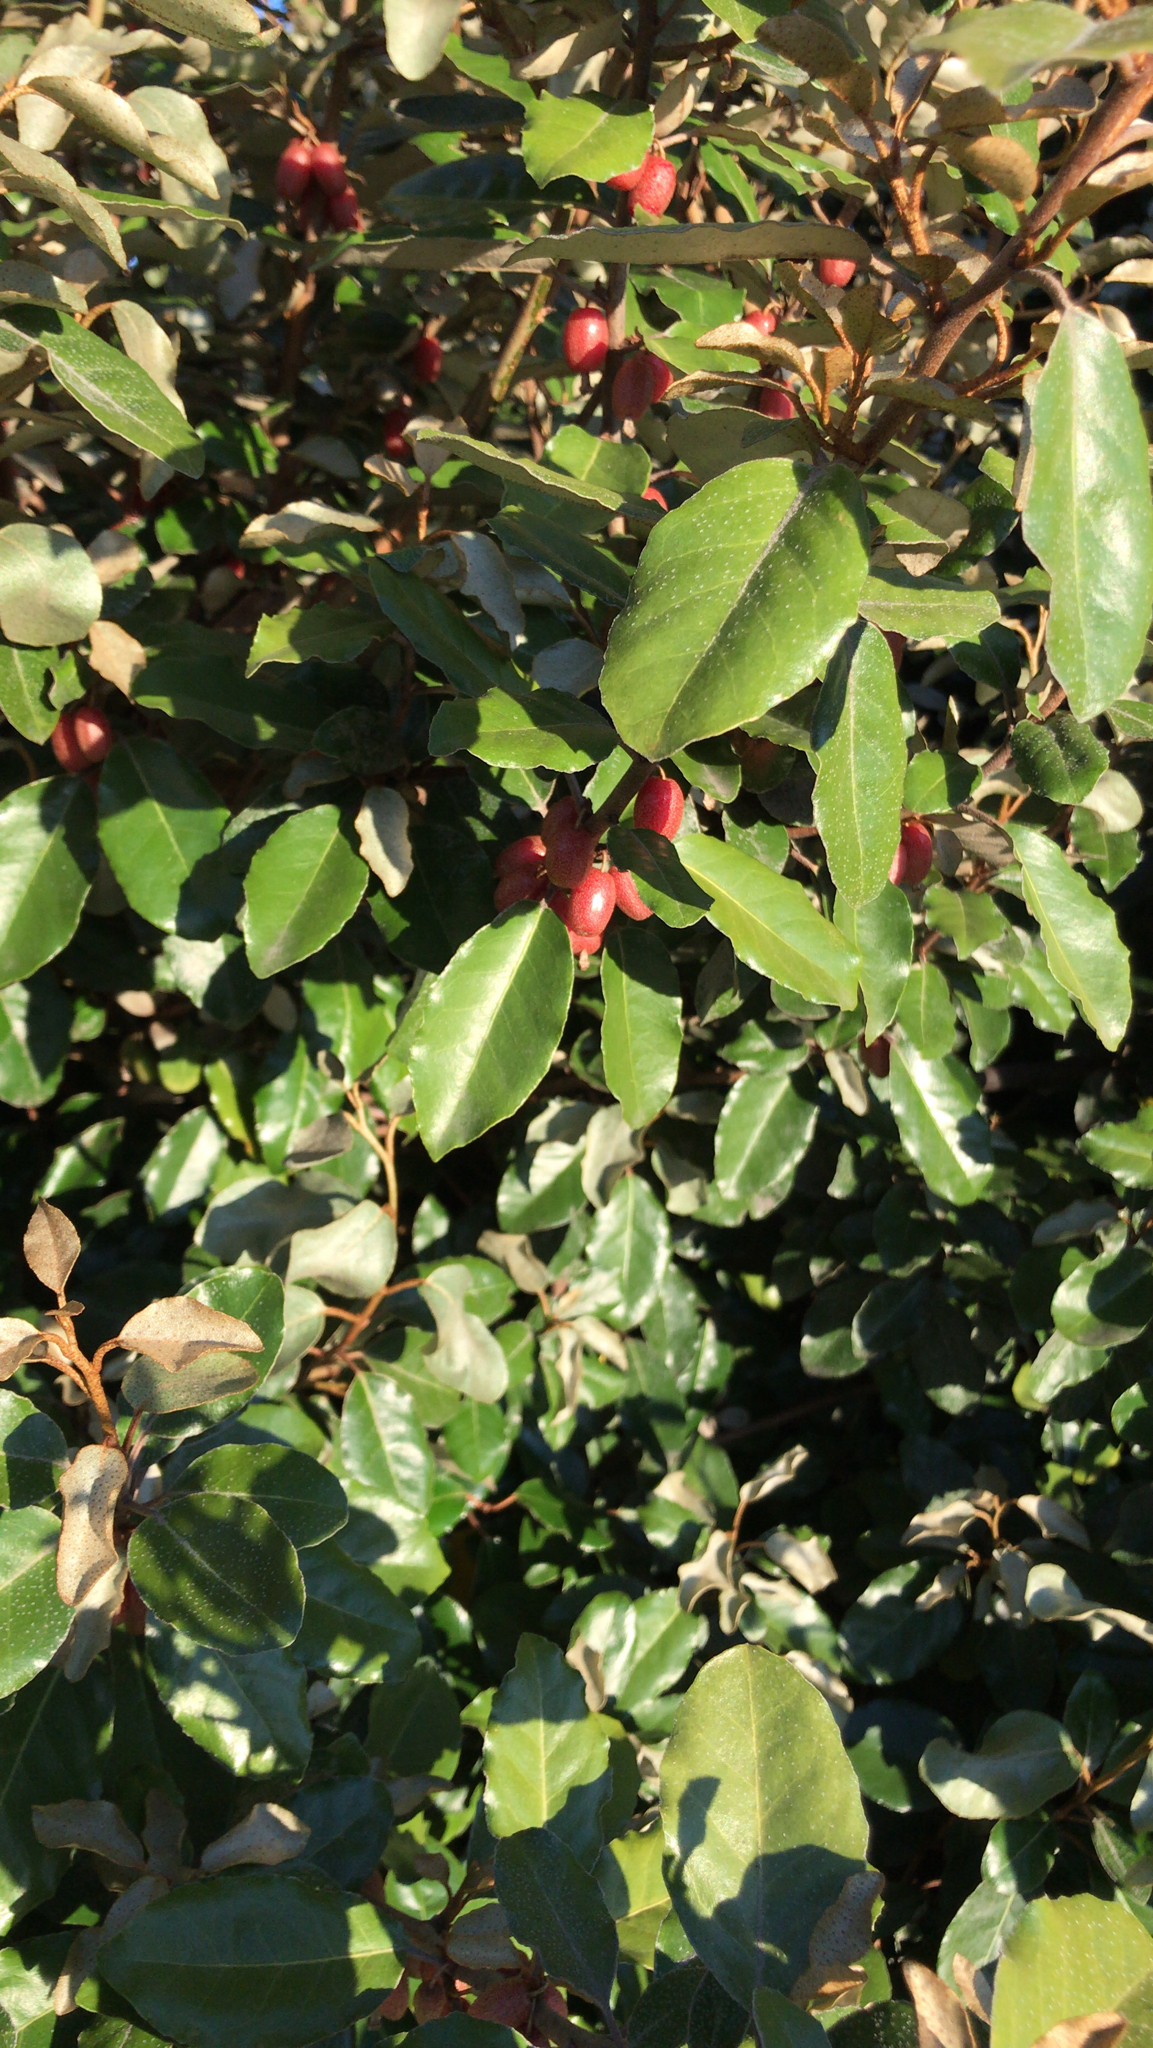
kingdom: Plantae
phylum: Tracheophyta
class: Magnoliopsida
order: Rosales
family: Elaeagnaceae
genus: Elaeagnus
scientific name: Elaeagnus pungens
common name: Spiny oleaster
